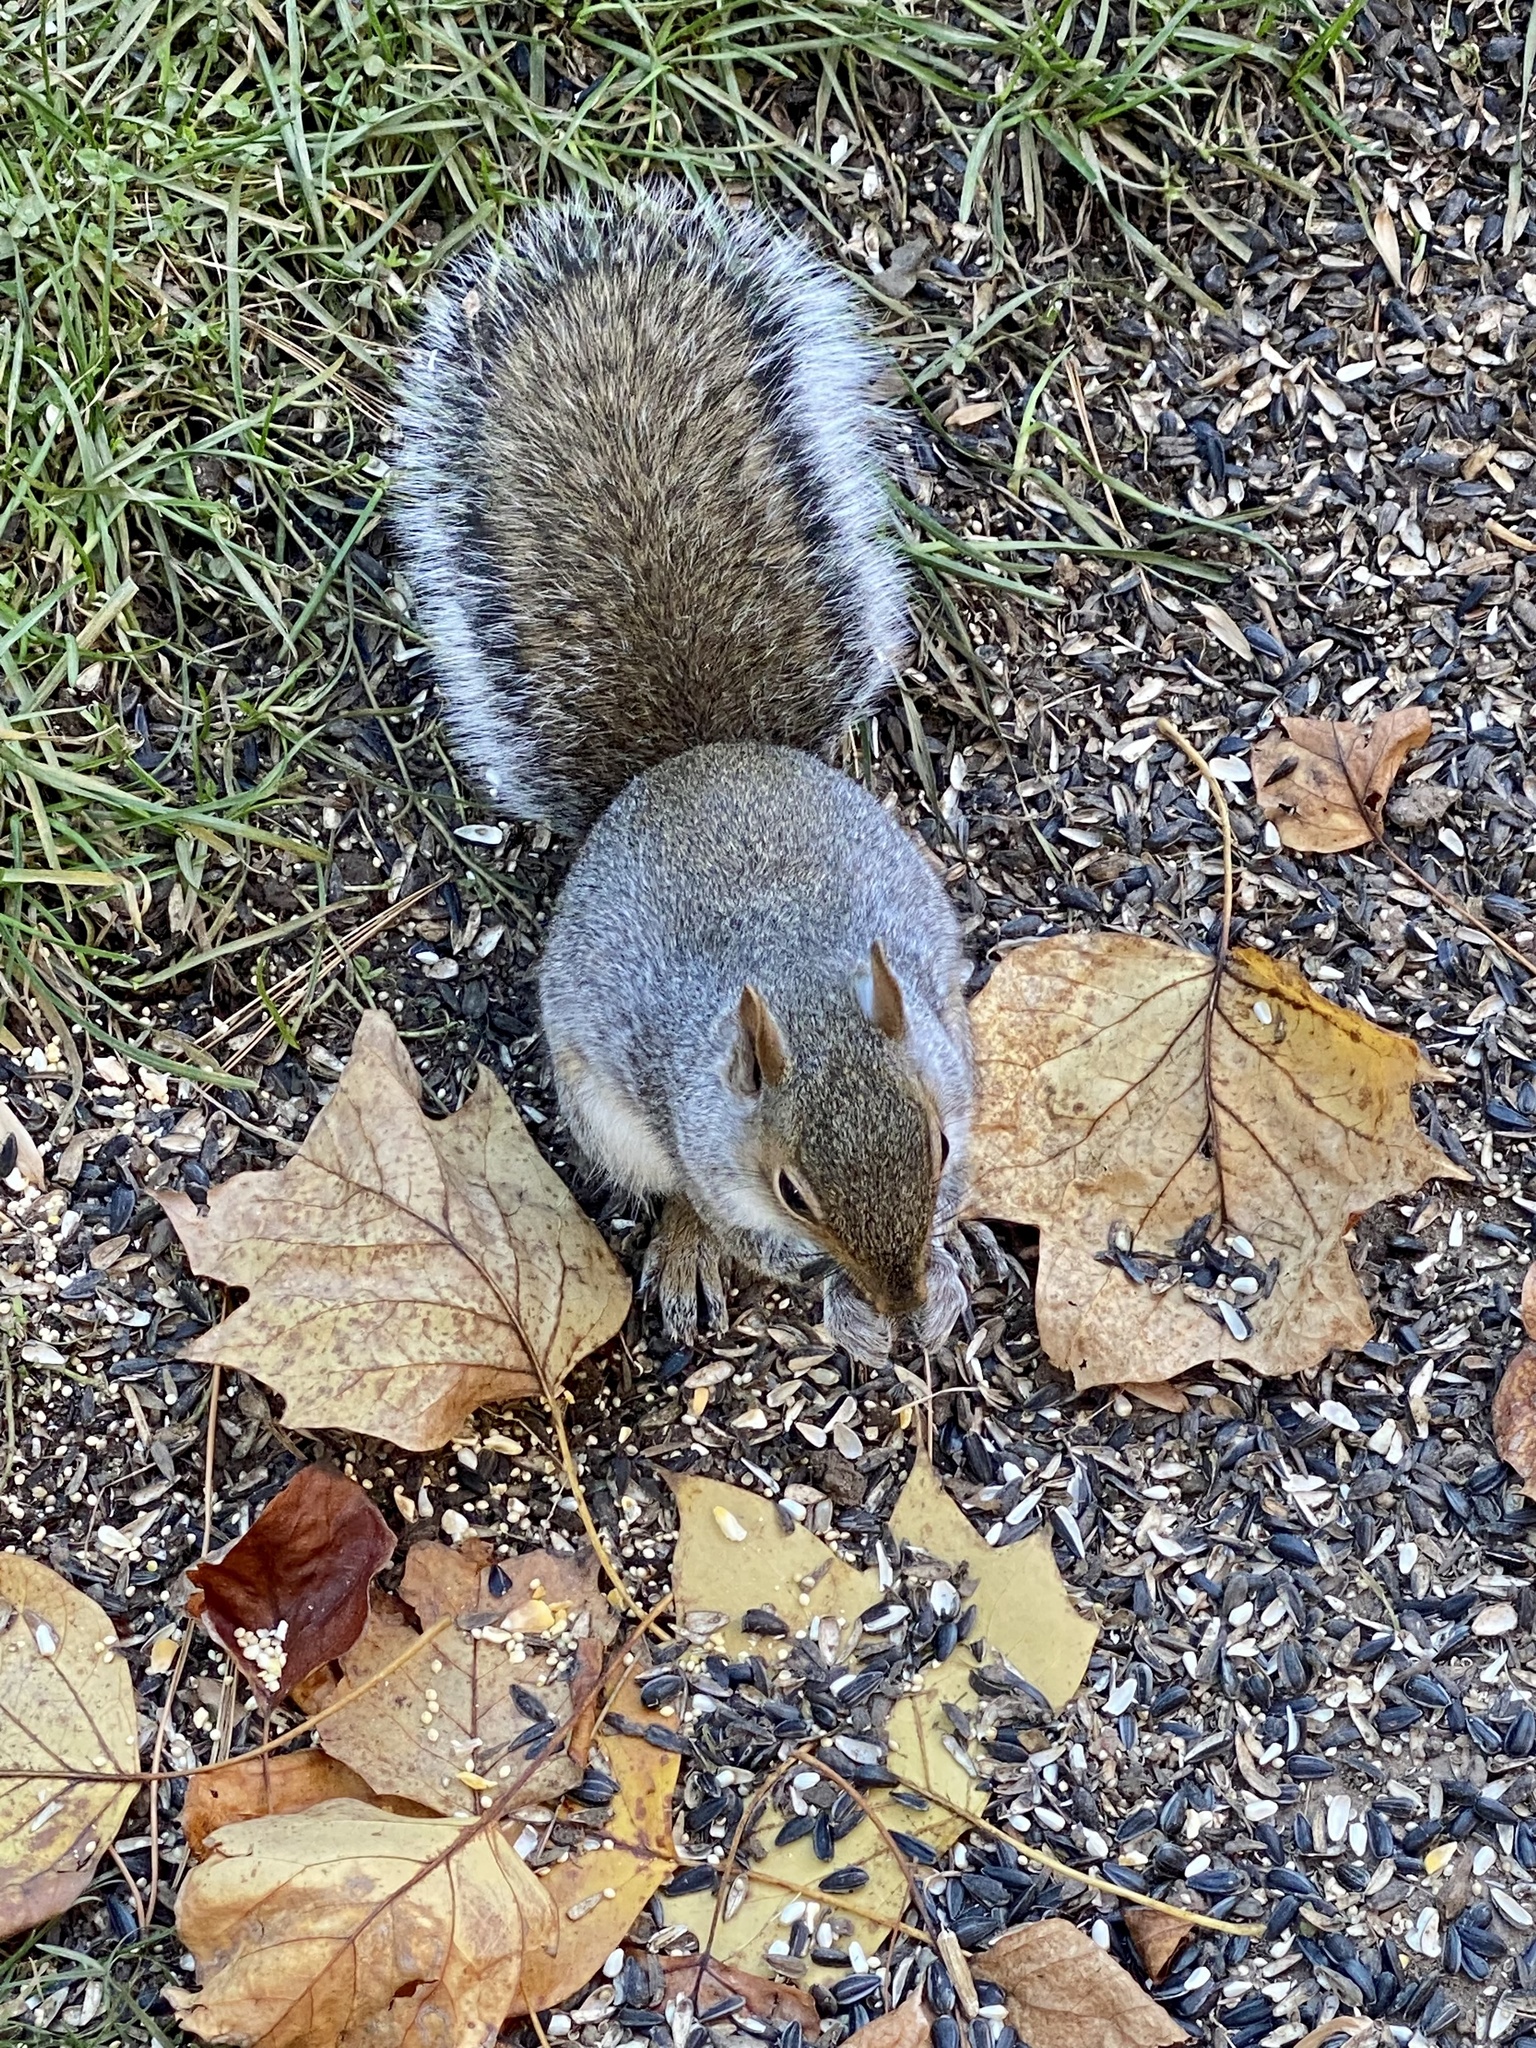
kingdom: Animalia
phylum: Chordata
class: Mammalia
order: Rodentia
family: Sciuridae
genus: Sciurus
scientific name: Sciurus carolinensis
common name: Eastern gray squirrel
